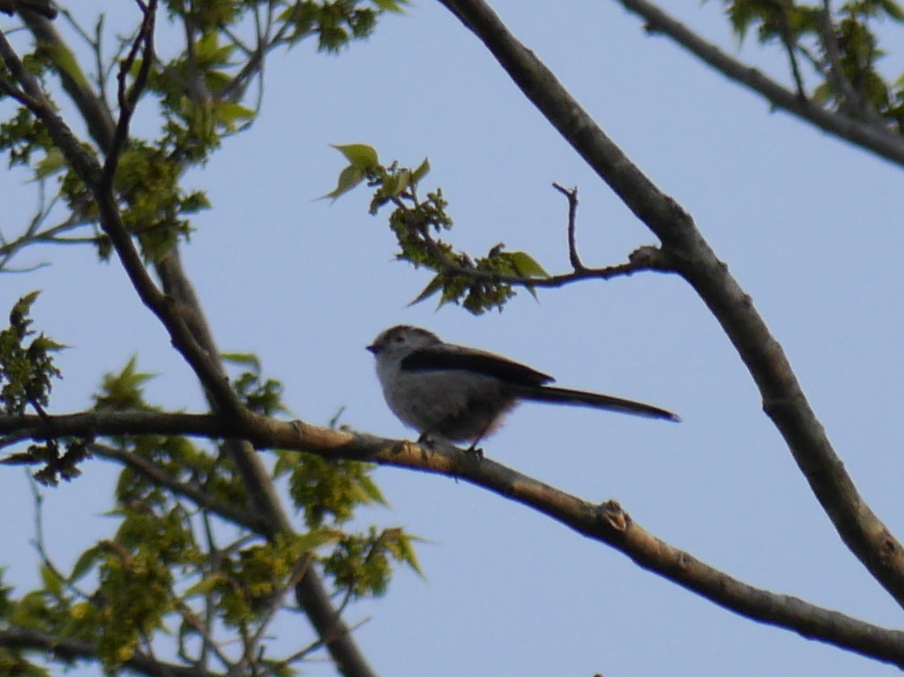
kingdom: Animalia
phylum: Chordata
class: Aves
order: Passeriformes
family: Aegithalidae
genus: Aegithalos
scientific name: Aegithalos caudatus
